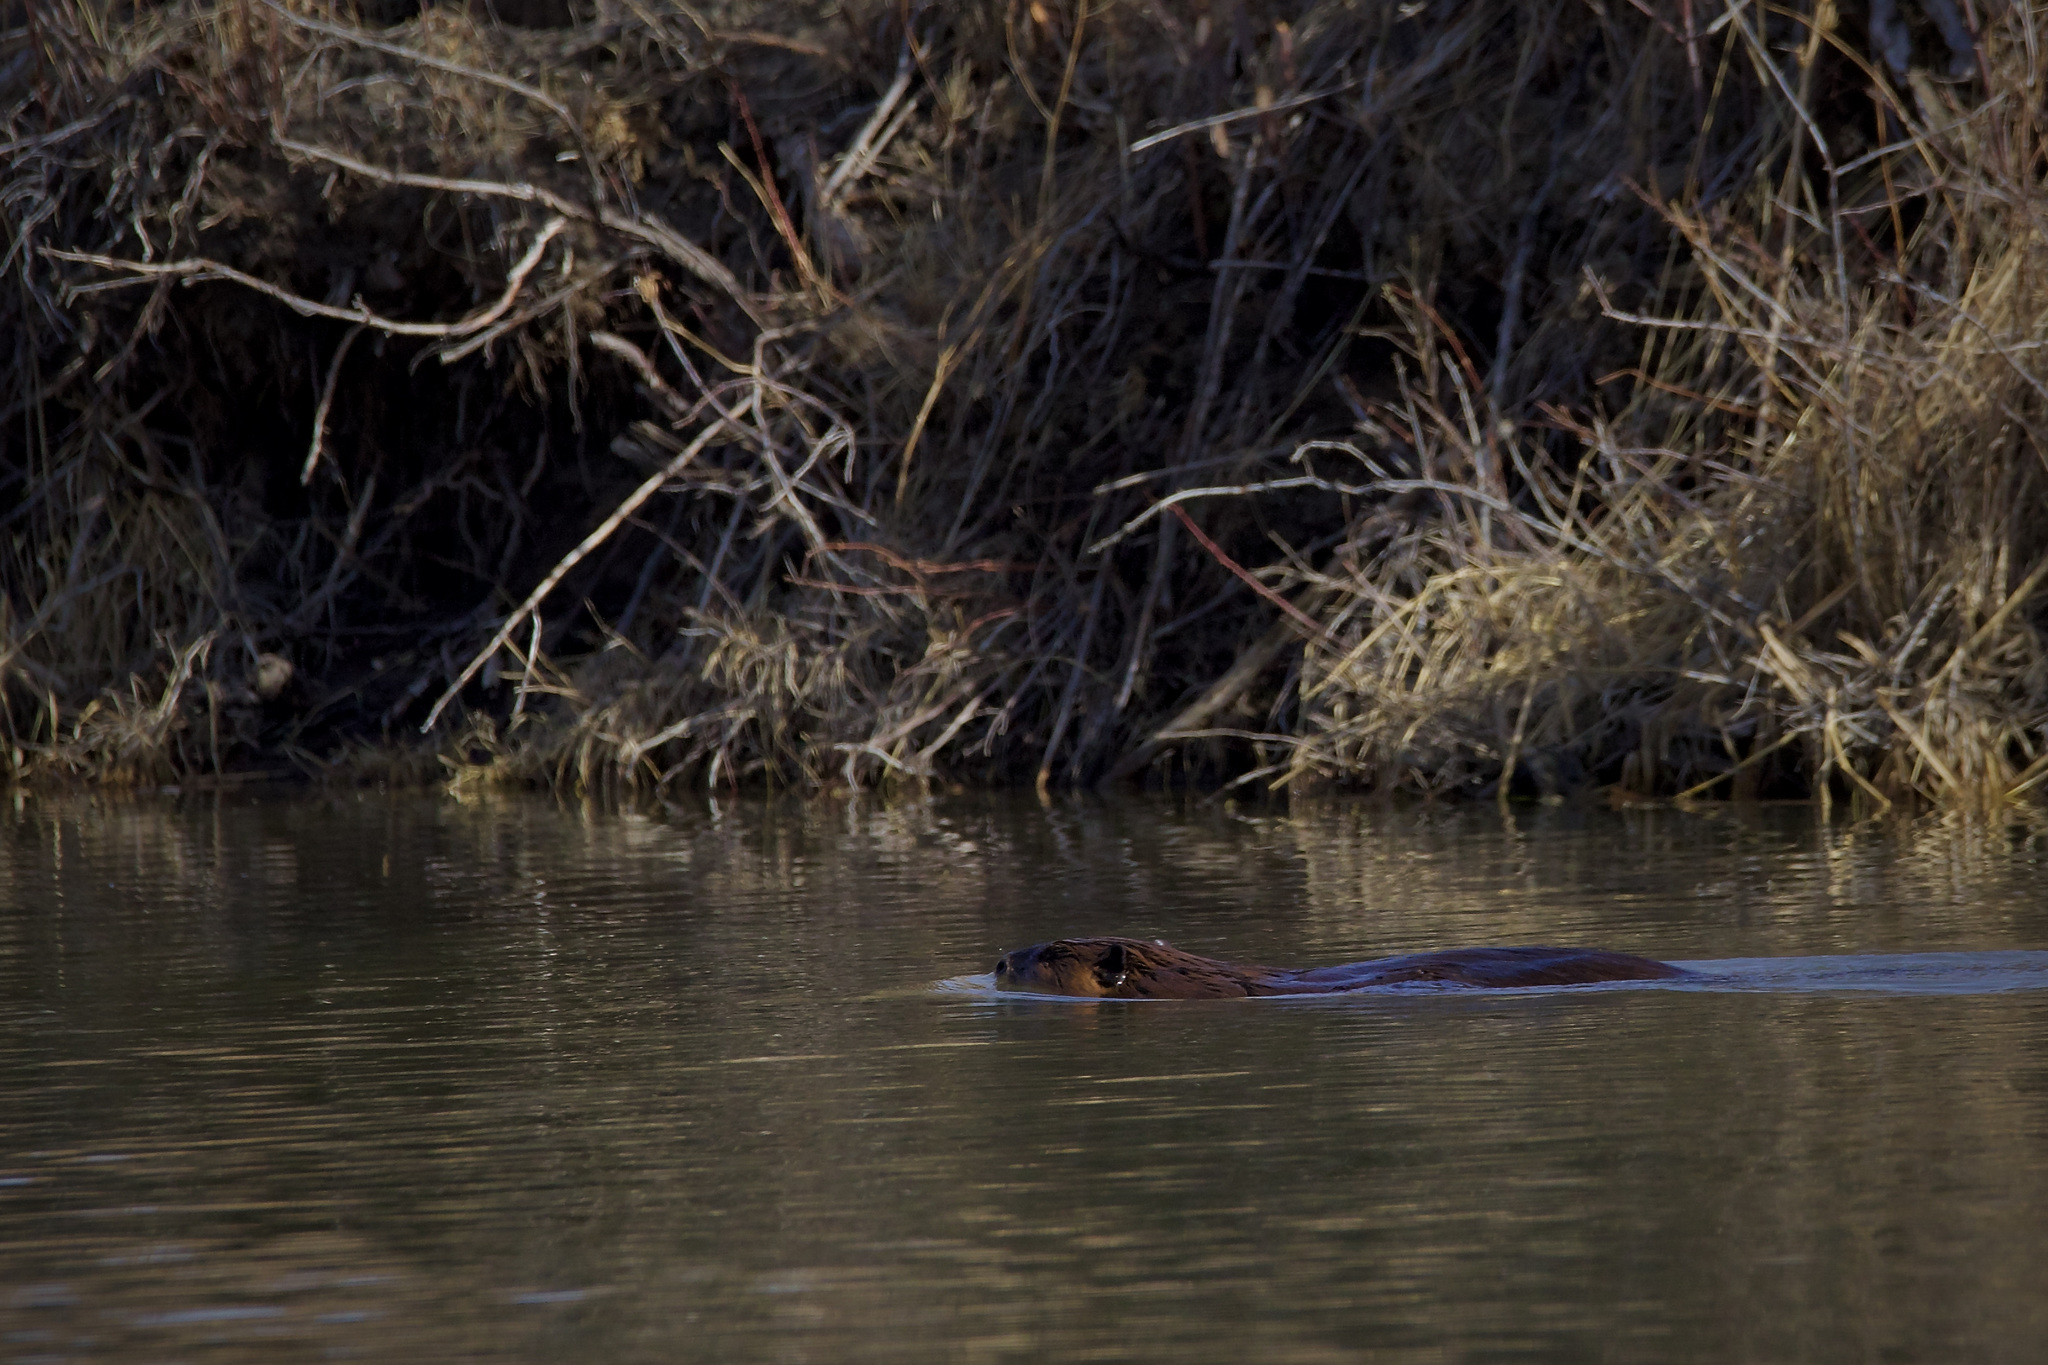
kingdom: Animalia
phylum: Chordata
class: Mammalia
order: Rodentia
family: Castoridae
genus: Castor
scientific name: Castor canadensis
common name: American beaver
